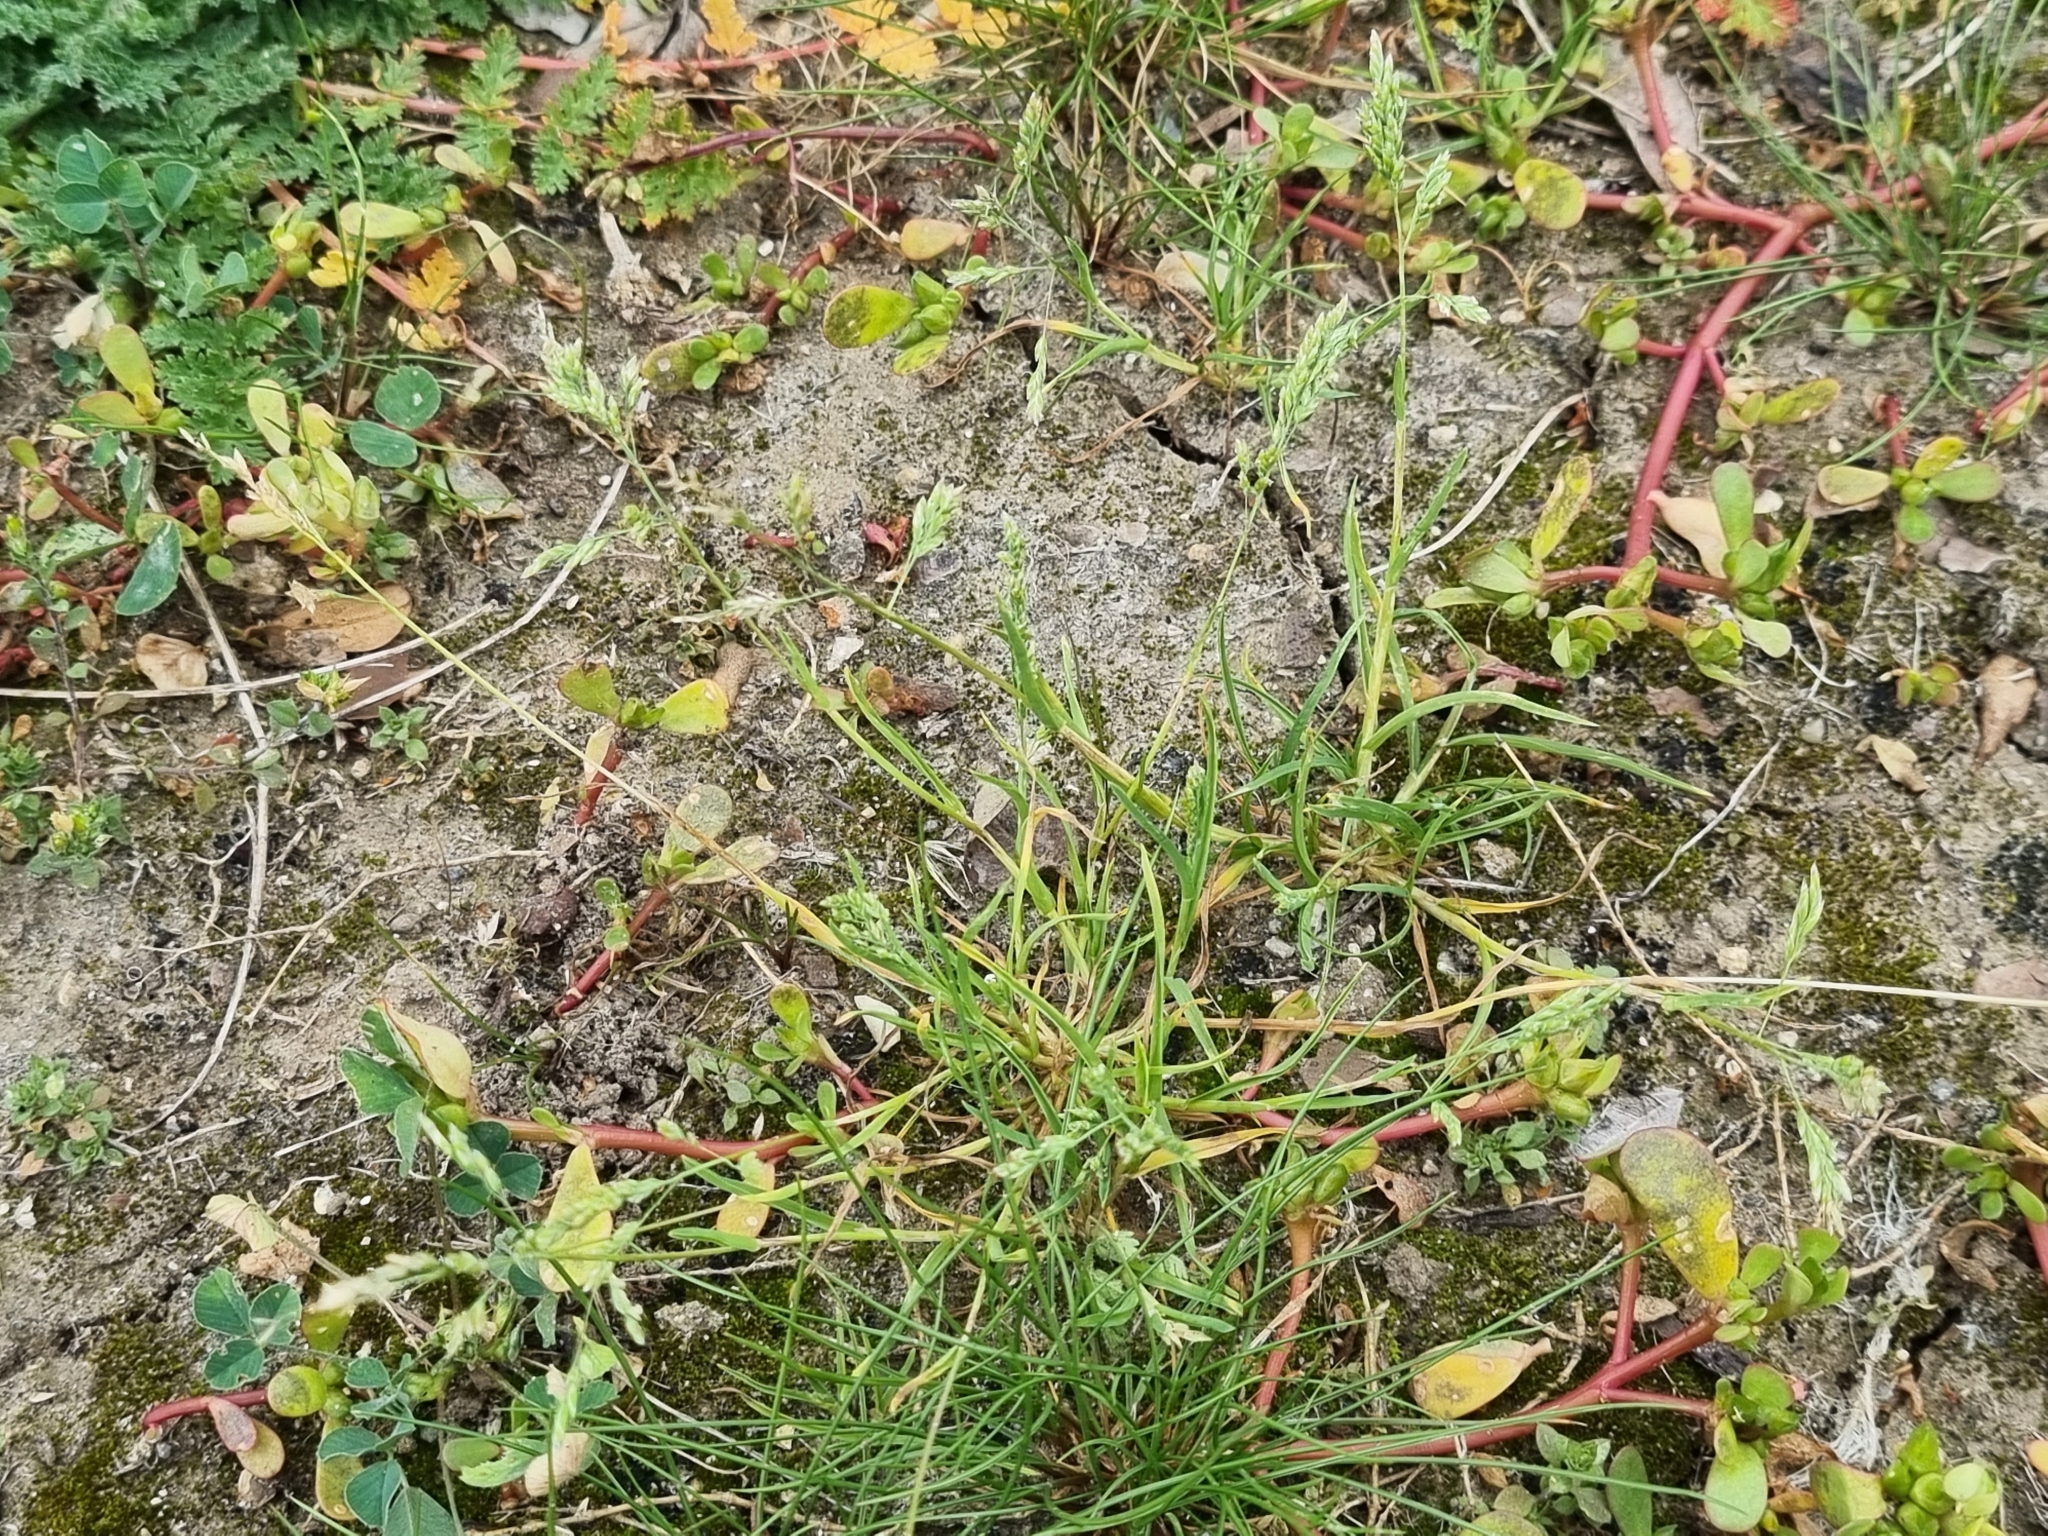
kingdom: Plantae
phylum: Tracheophyta
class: Liliopsida
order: Poales
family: Poaceae
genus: Poa
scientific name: Poa annua
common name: Annual bluegrass
